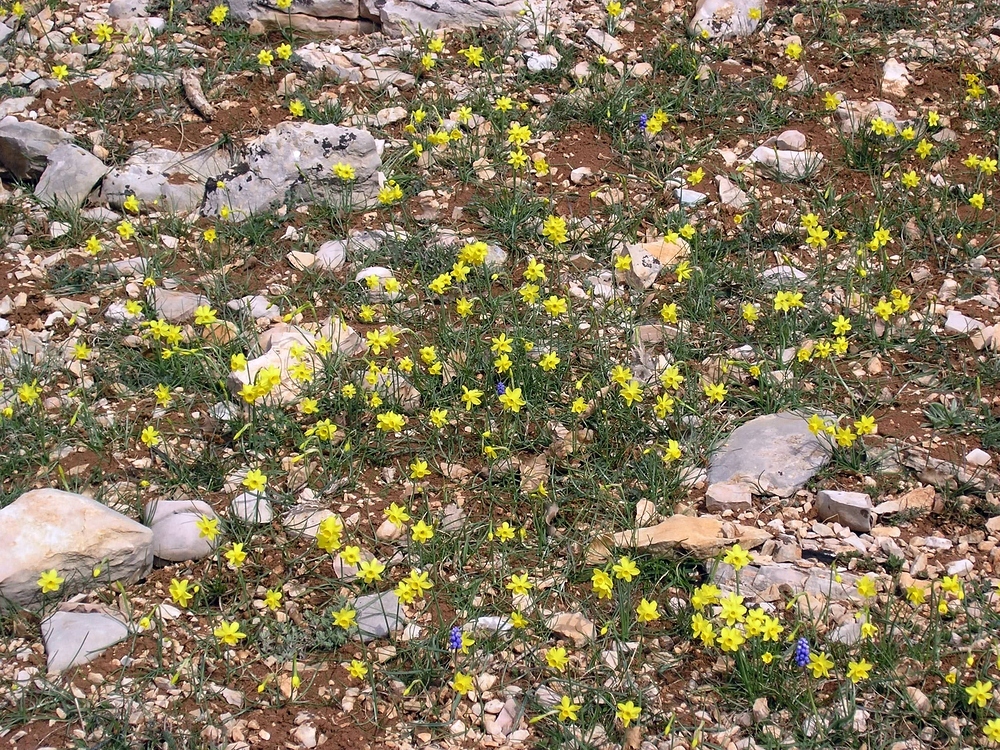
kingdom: Plantae
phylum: Tracheophyta
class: Liliopsida
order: Asparagales
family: Amaryllidaceae
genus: Narcissus
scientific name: Narcissus assoanus
